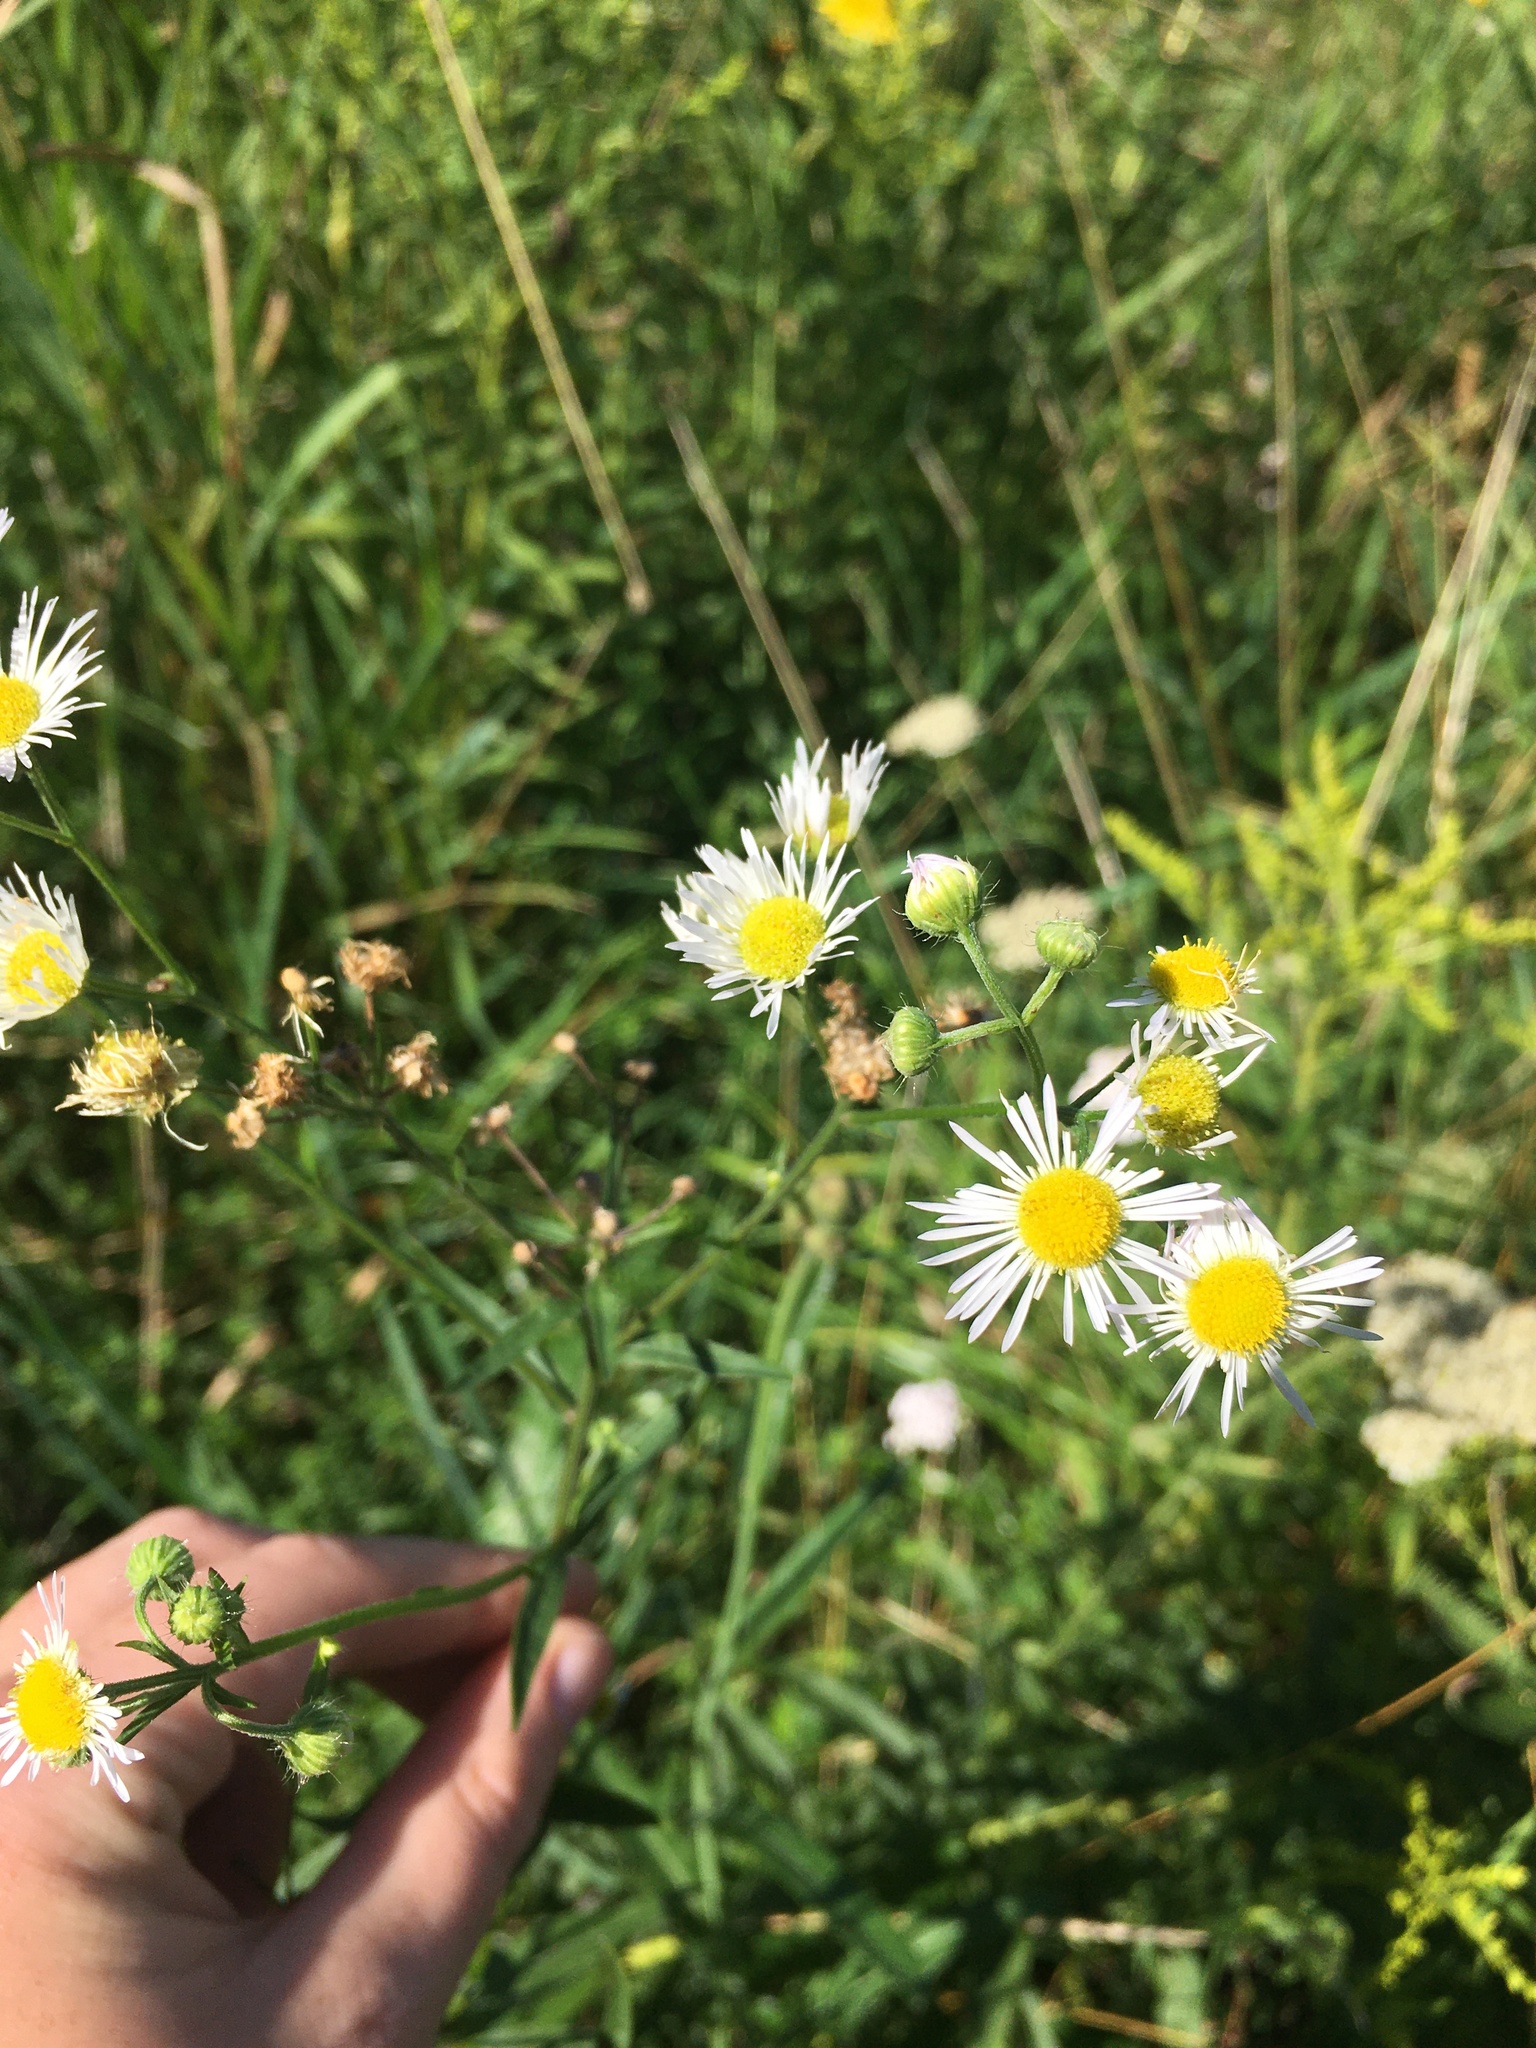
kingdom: Plantae
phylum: Tracheophyta
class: Magnoliopsida
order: Asterales
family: Asteraceae
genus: Erigeron
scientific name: Erigeron strigosus
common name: Common eastern fleabane
